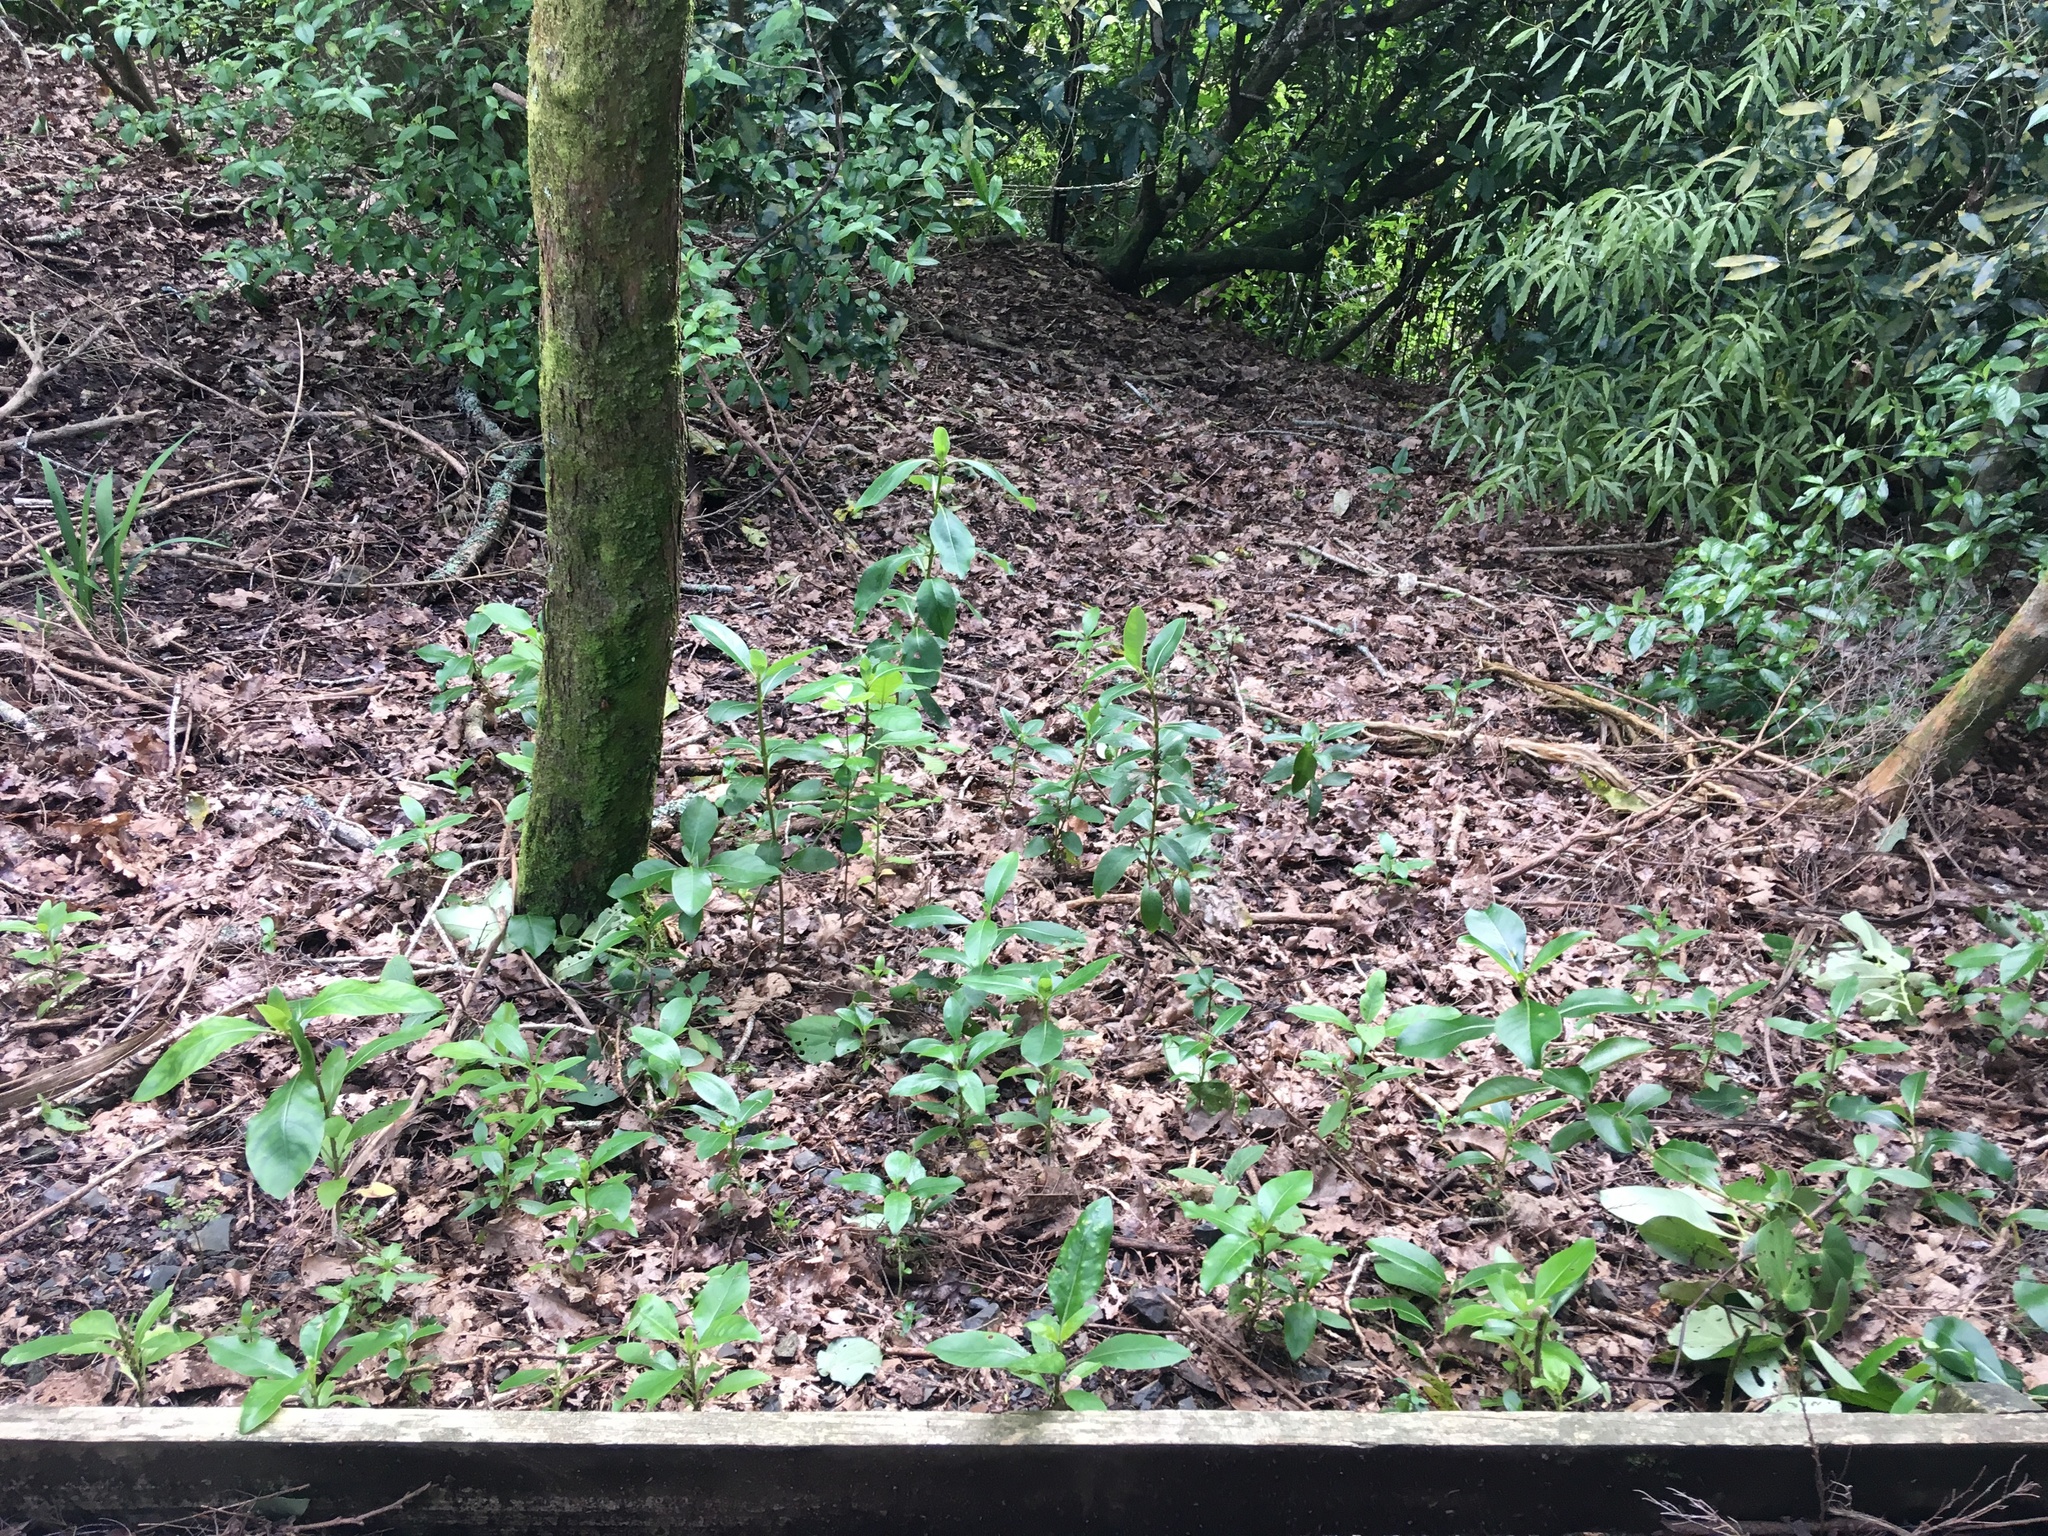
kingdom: Plantae
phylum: Tracheophyta
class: Liliopsida
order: Asparagales
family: Iridaceae
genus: Crocosmia
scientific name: Crocosmia crocosmiiflora
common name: Montbretia
